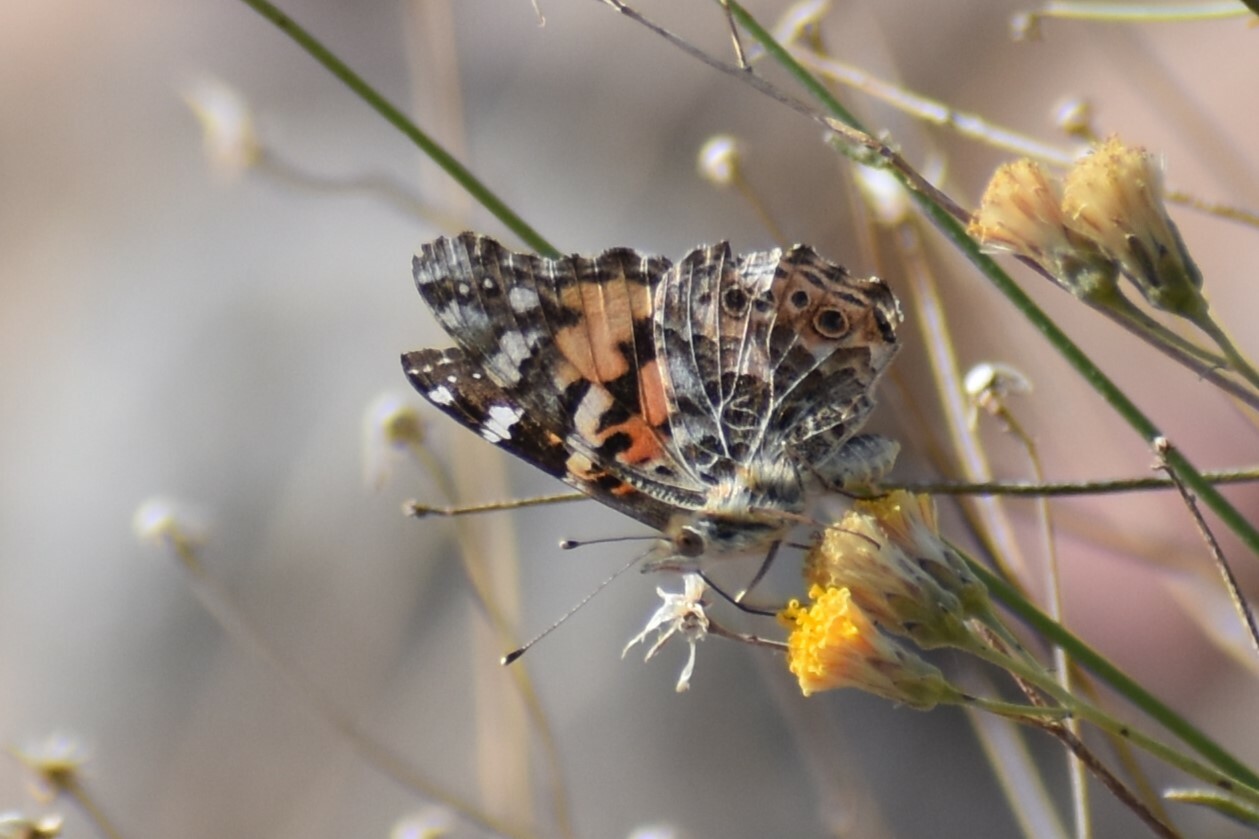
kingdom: Animalia
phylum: Arthropoda
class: Insecta
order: Lepidoptera
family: Nymphalidae
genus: Vanessa
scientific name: Vanessa cardui
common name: Painted lady
